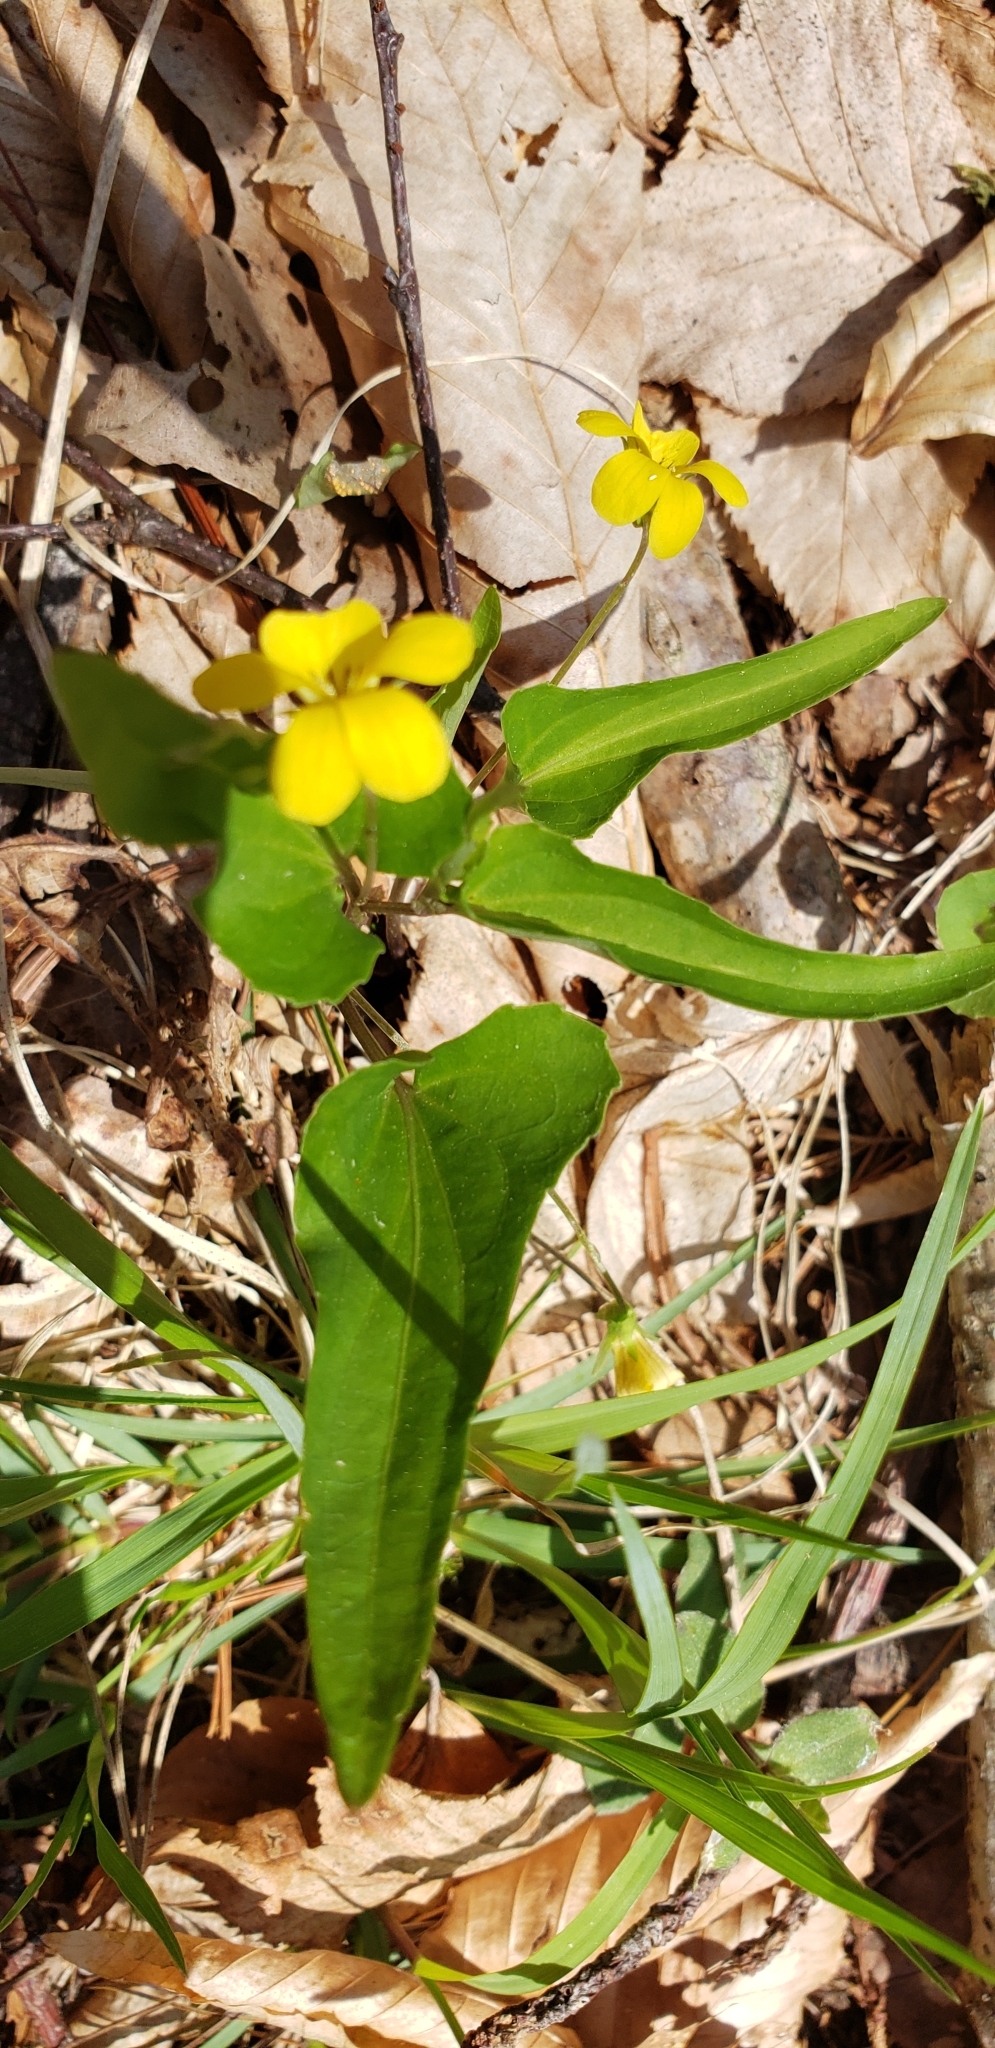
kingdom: Plantae
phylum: Tracheophyta
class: Magnoliopsida
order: Malpighiales
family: Violaceae
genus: Viola
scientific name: Viola hastata
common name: Spear-leaf violet
